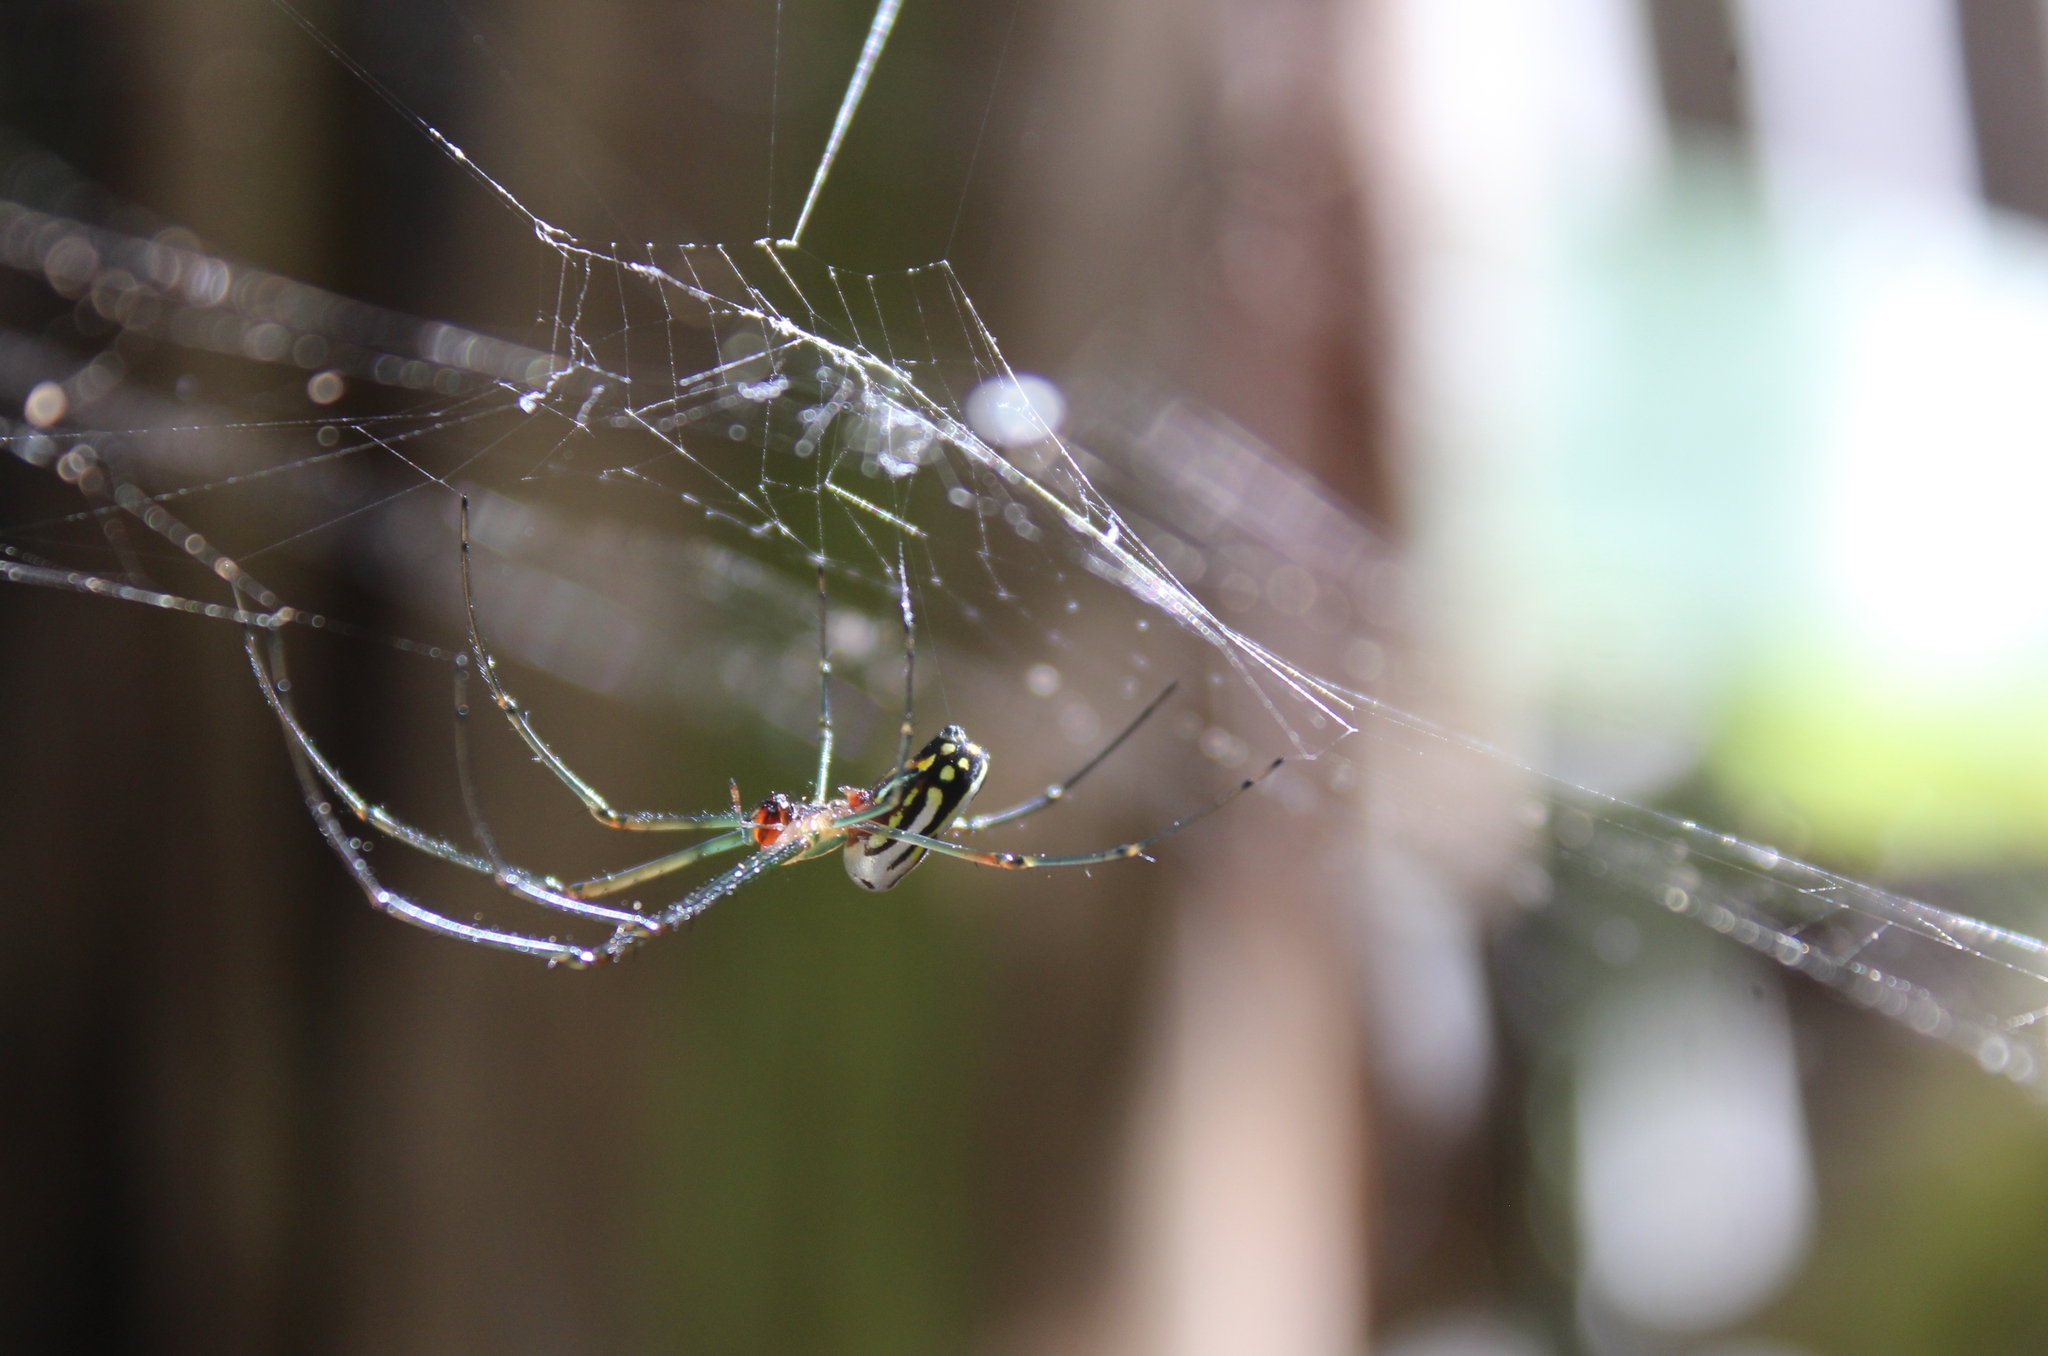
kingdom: Animalia
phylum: Arthropoda
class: Arachnida
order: Araneae
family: Tetragnathidae
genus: Leucauge
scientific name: Leucauge argyra
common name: Longjawed orb weavers
